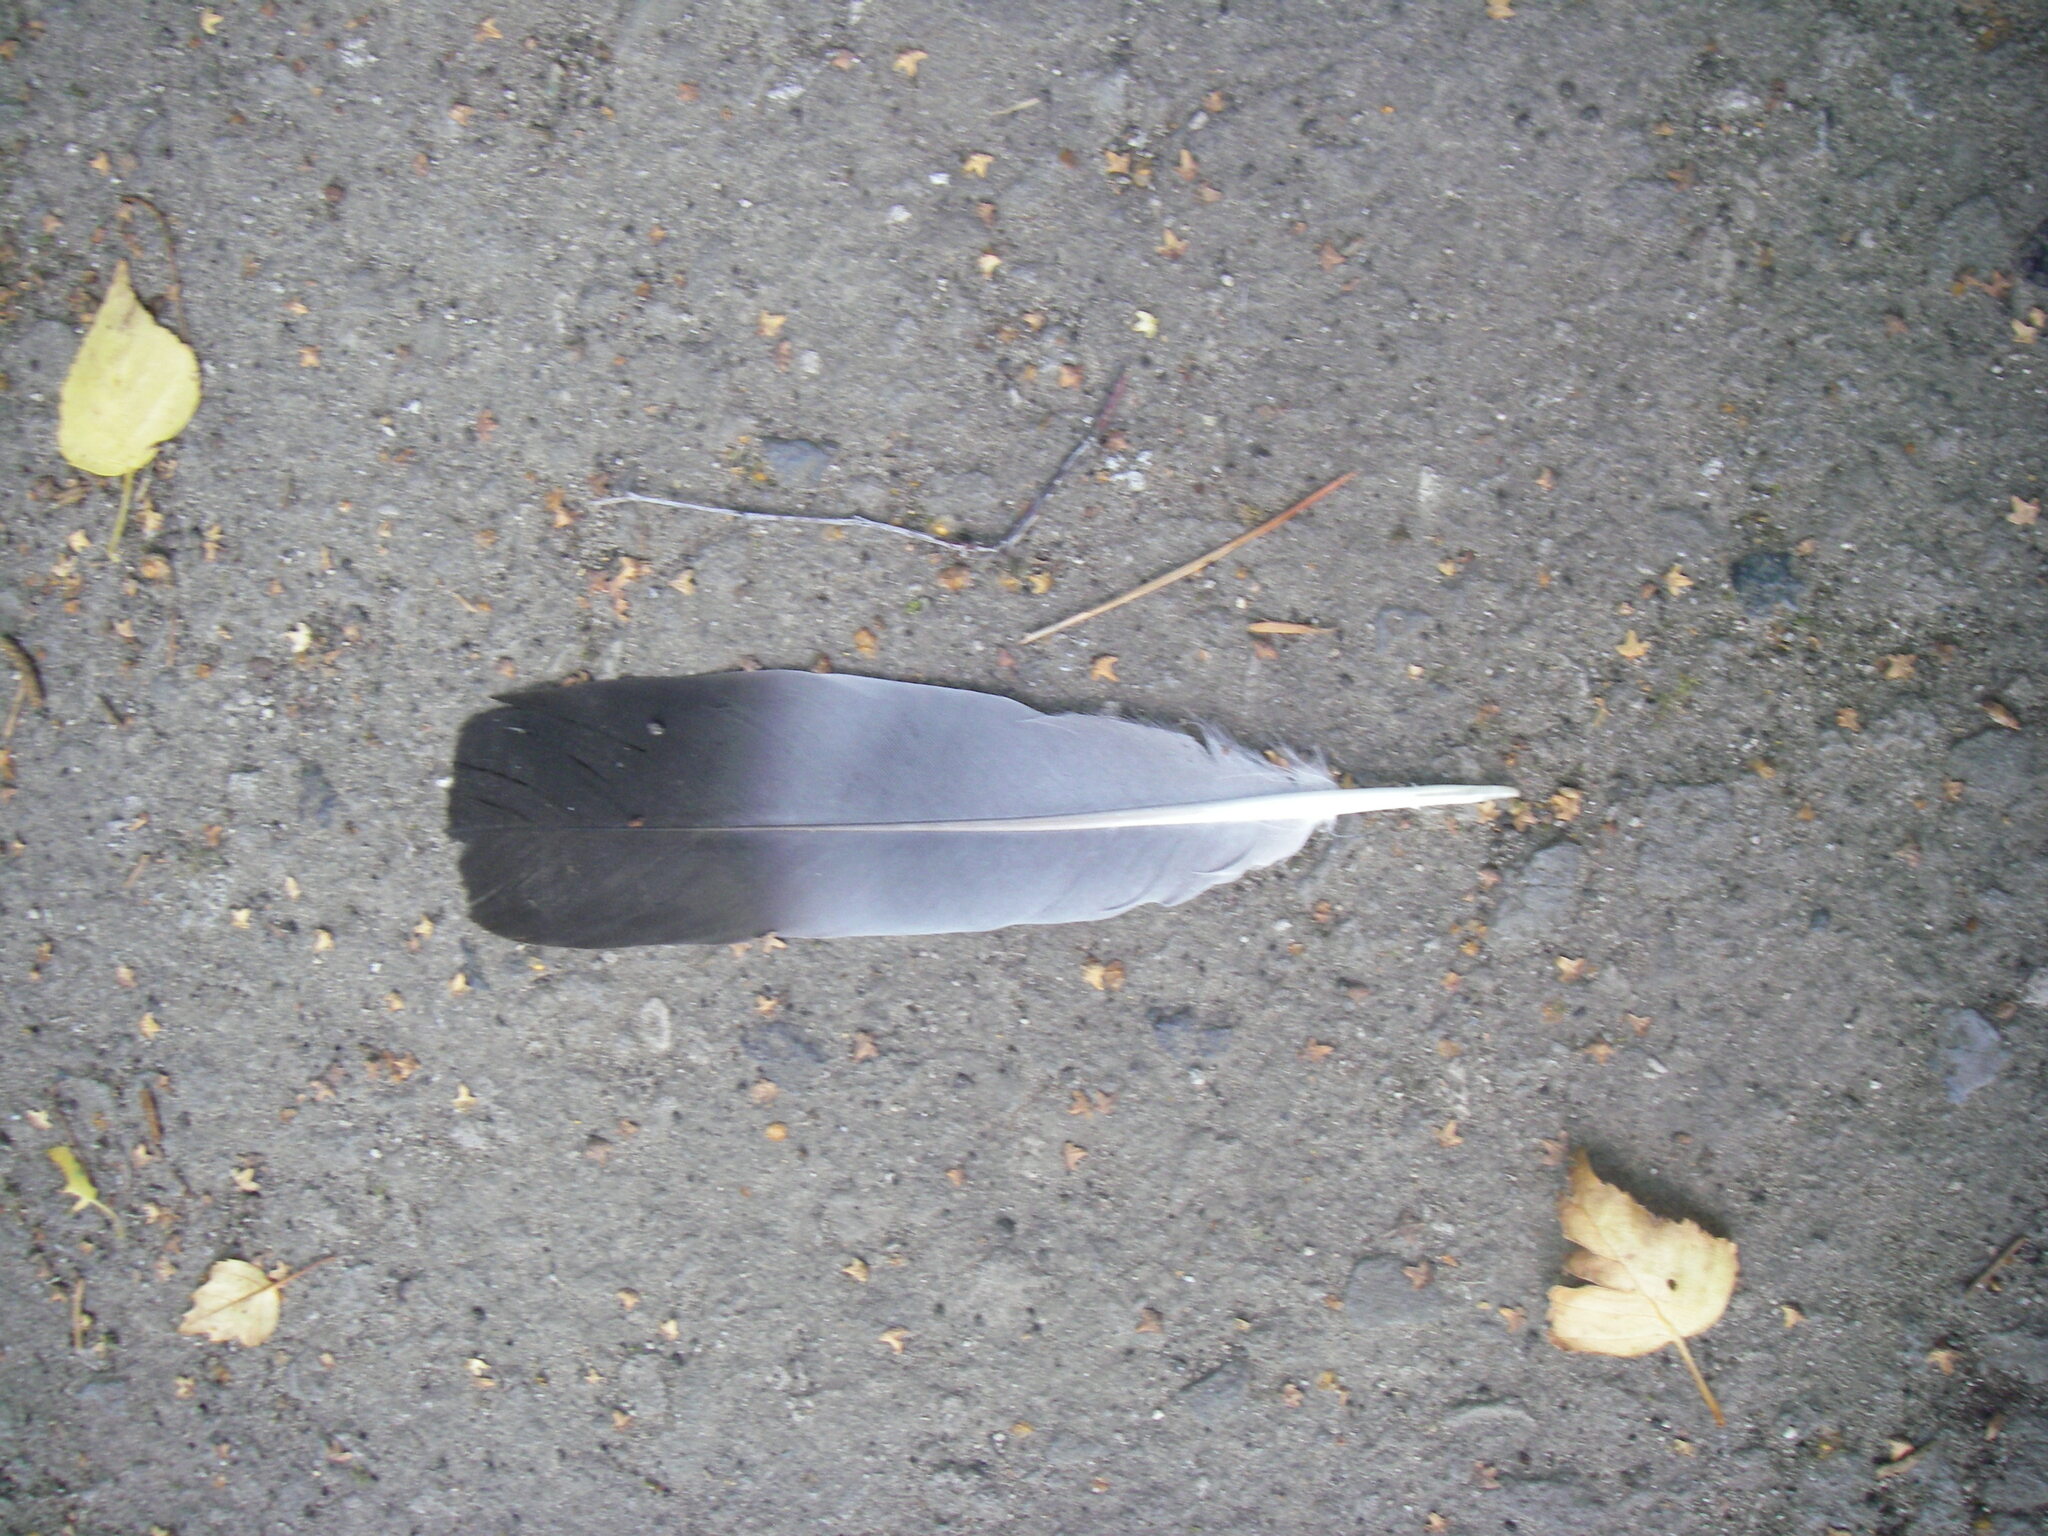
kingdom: Animalia
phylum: Chordata
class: Aves
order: Columbiformes
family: Columbidae
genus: Columba
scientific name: Columba palumbus
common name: Common wood pigeon
